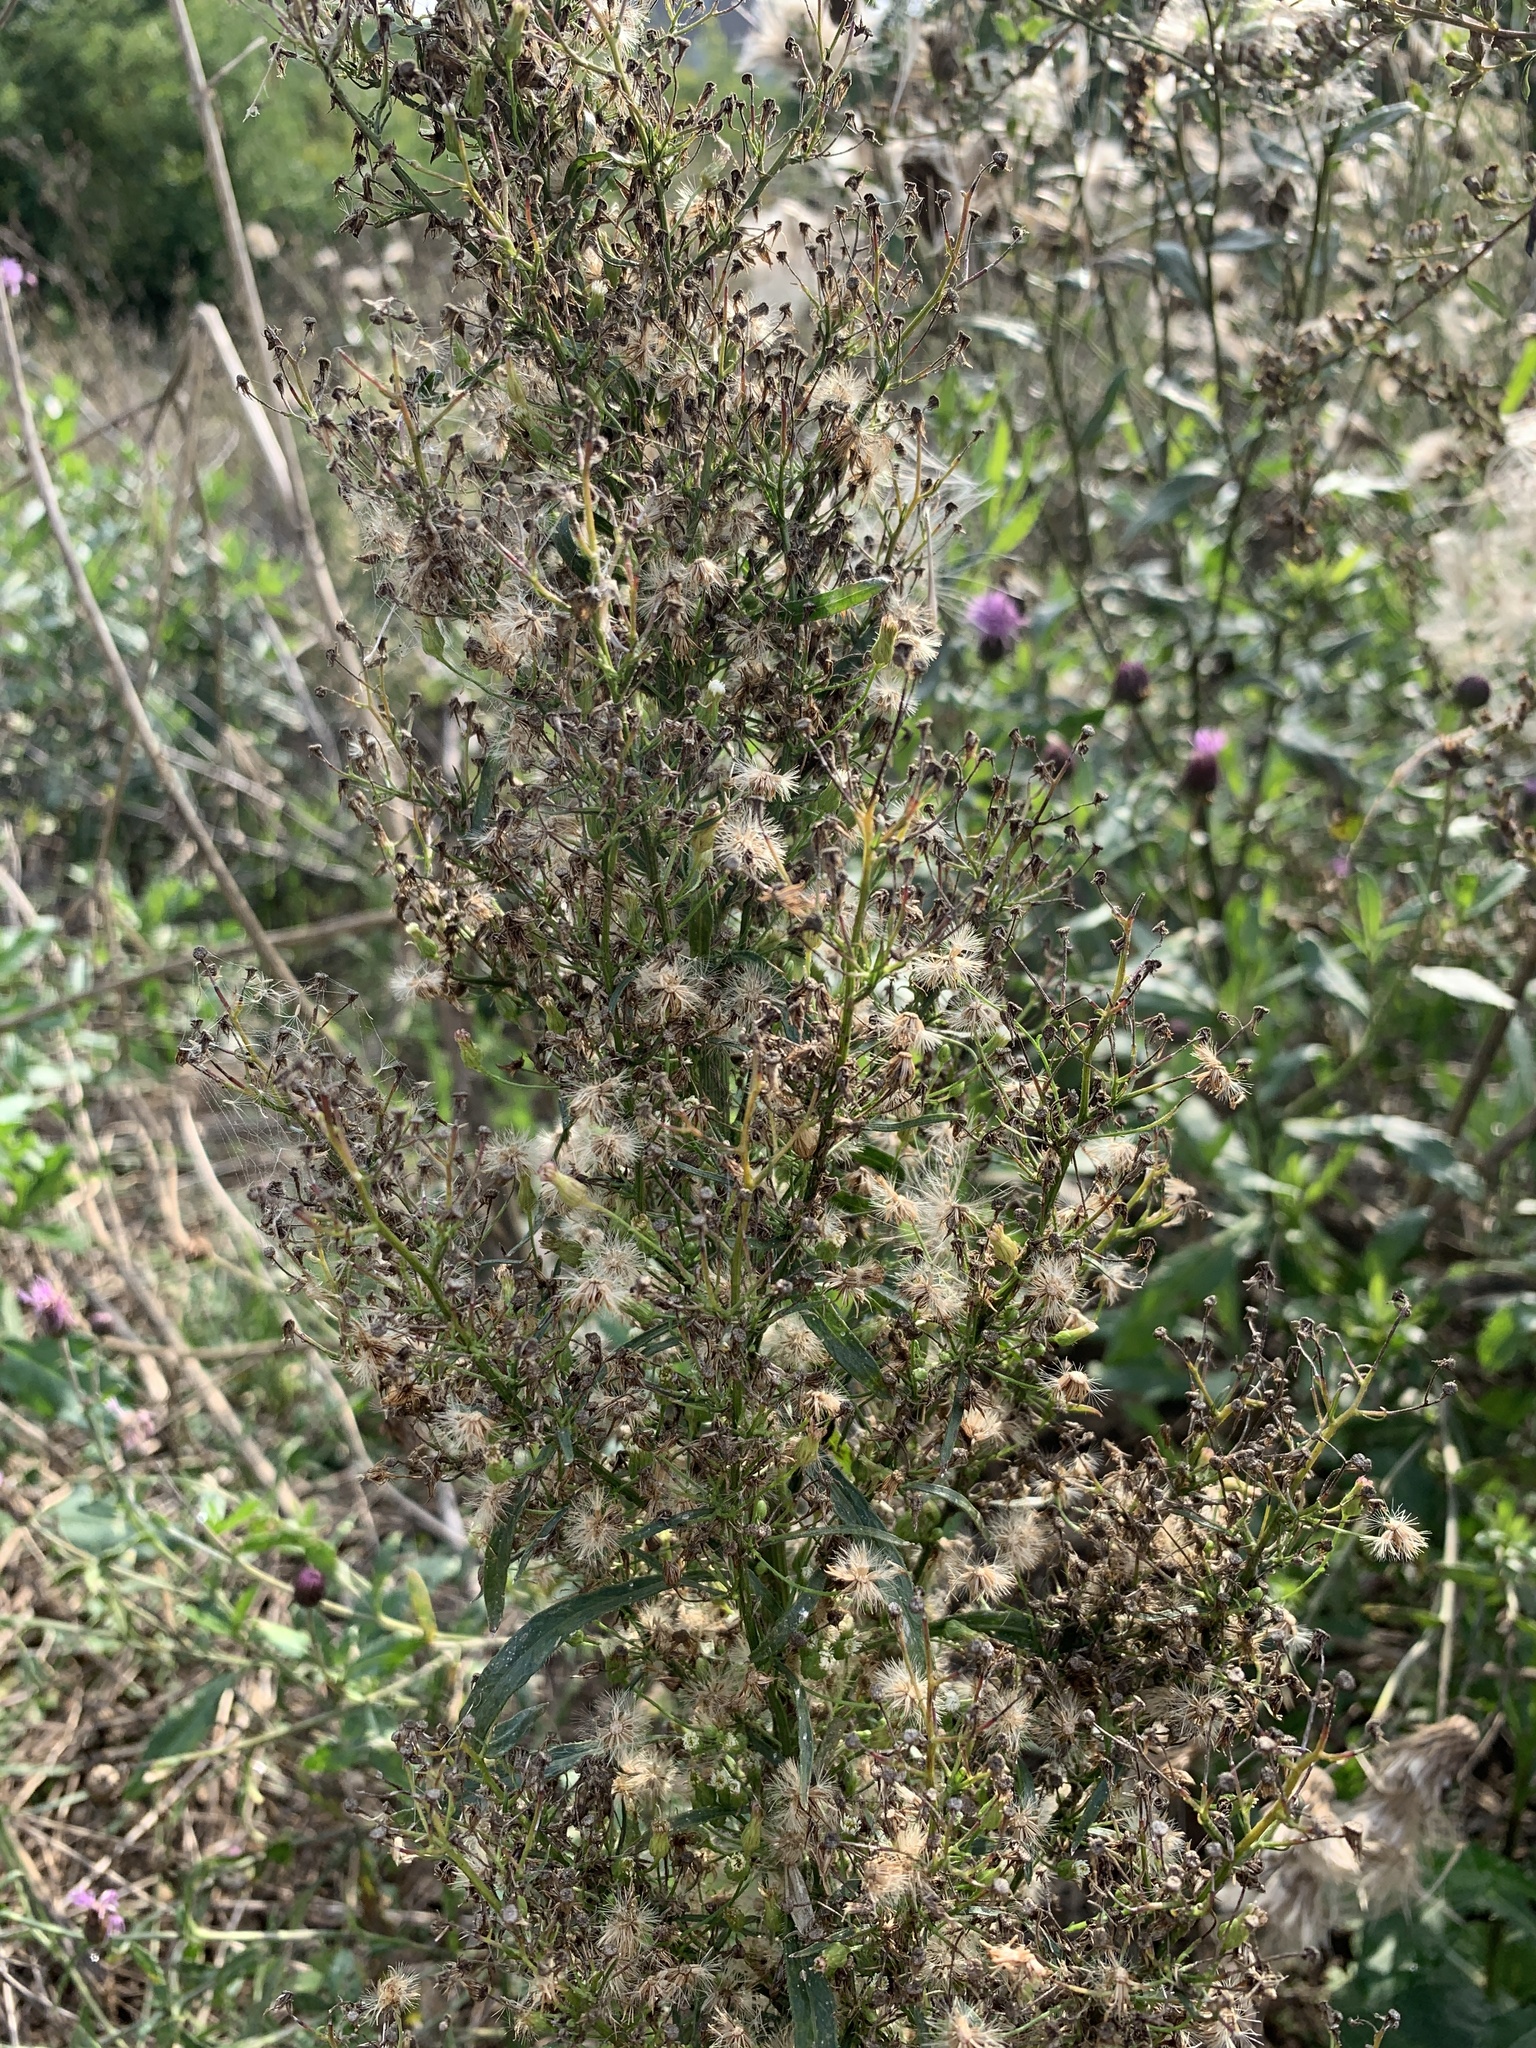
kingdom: Plantae
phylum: Tracheophyta
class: Magnoliopsida
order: Asterales
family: Asteraceae
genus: Erigeron
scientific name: Erigeron canadensis
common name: Canadian fleabane
